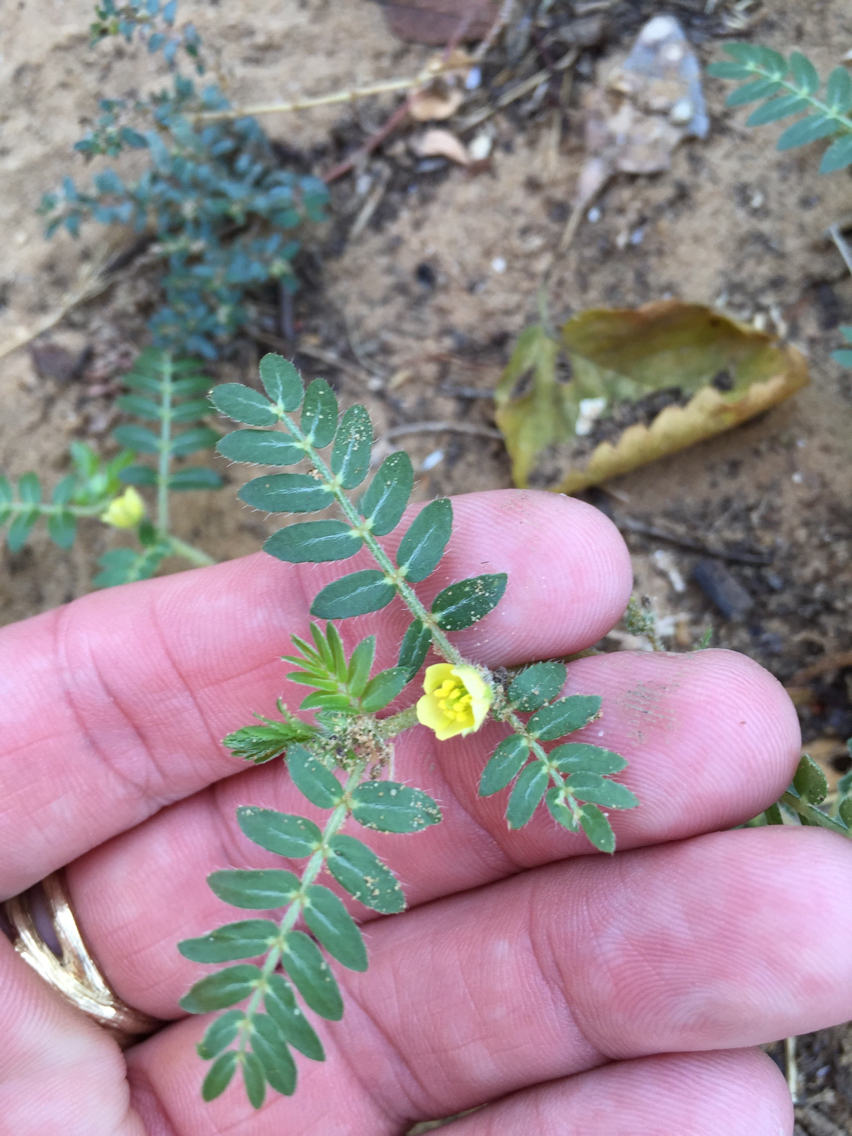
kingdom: Plantae
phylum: Tracheophyta
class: Magnoliopsida
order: Zygophyllales
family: Zygophyllaceae
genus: Tribulus
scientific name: Tribulus terrestris
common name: Puncturevine
